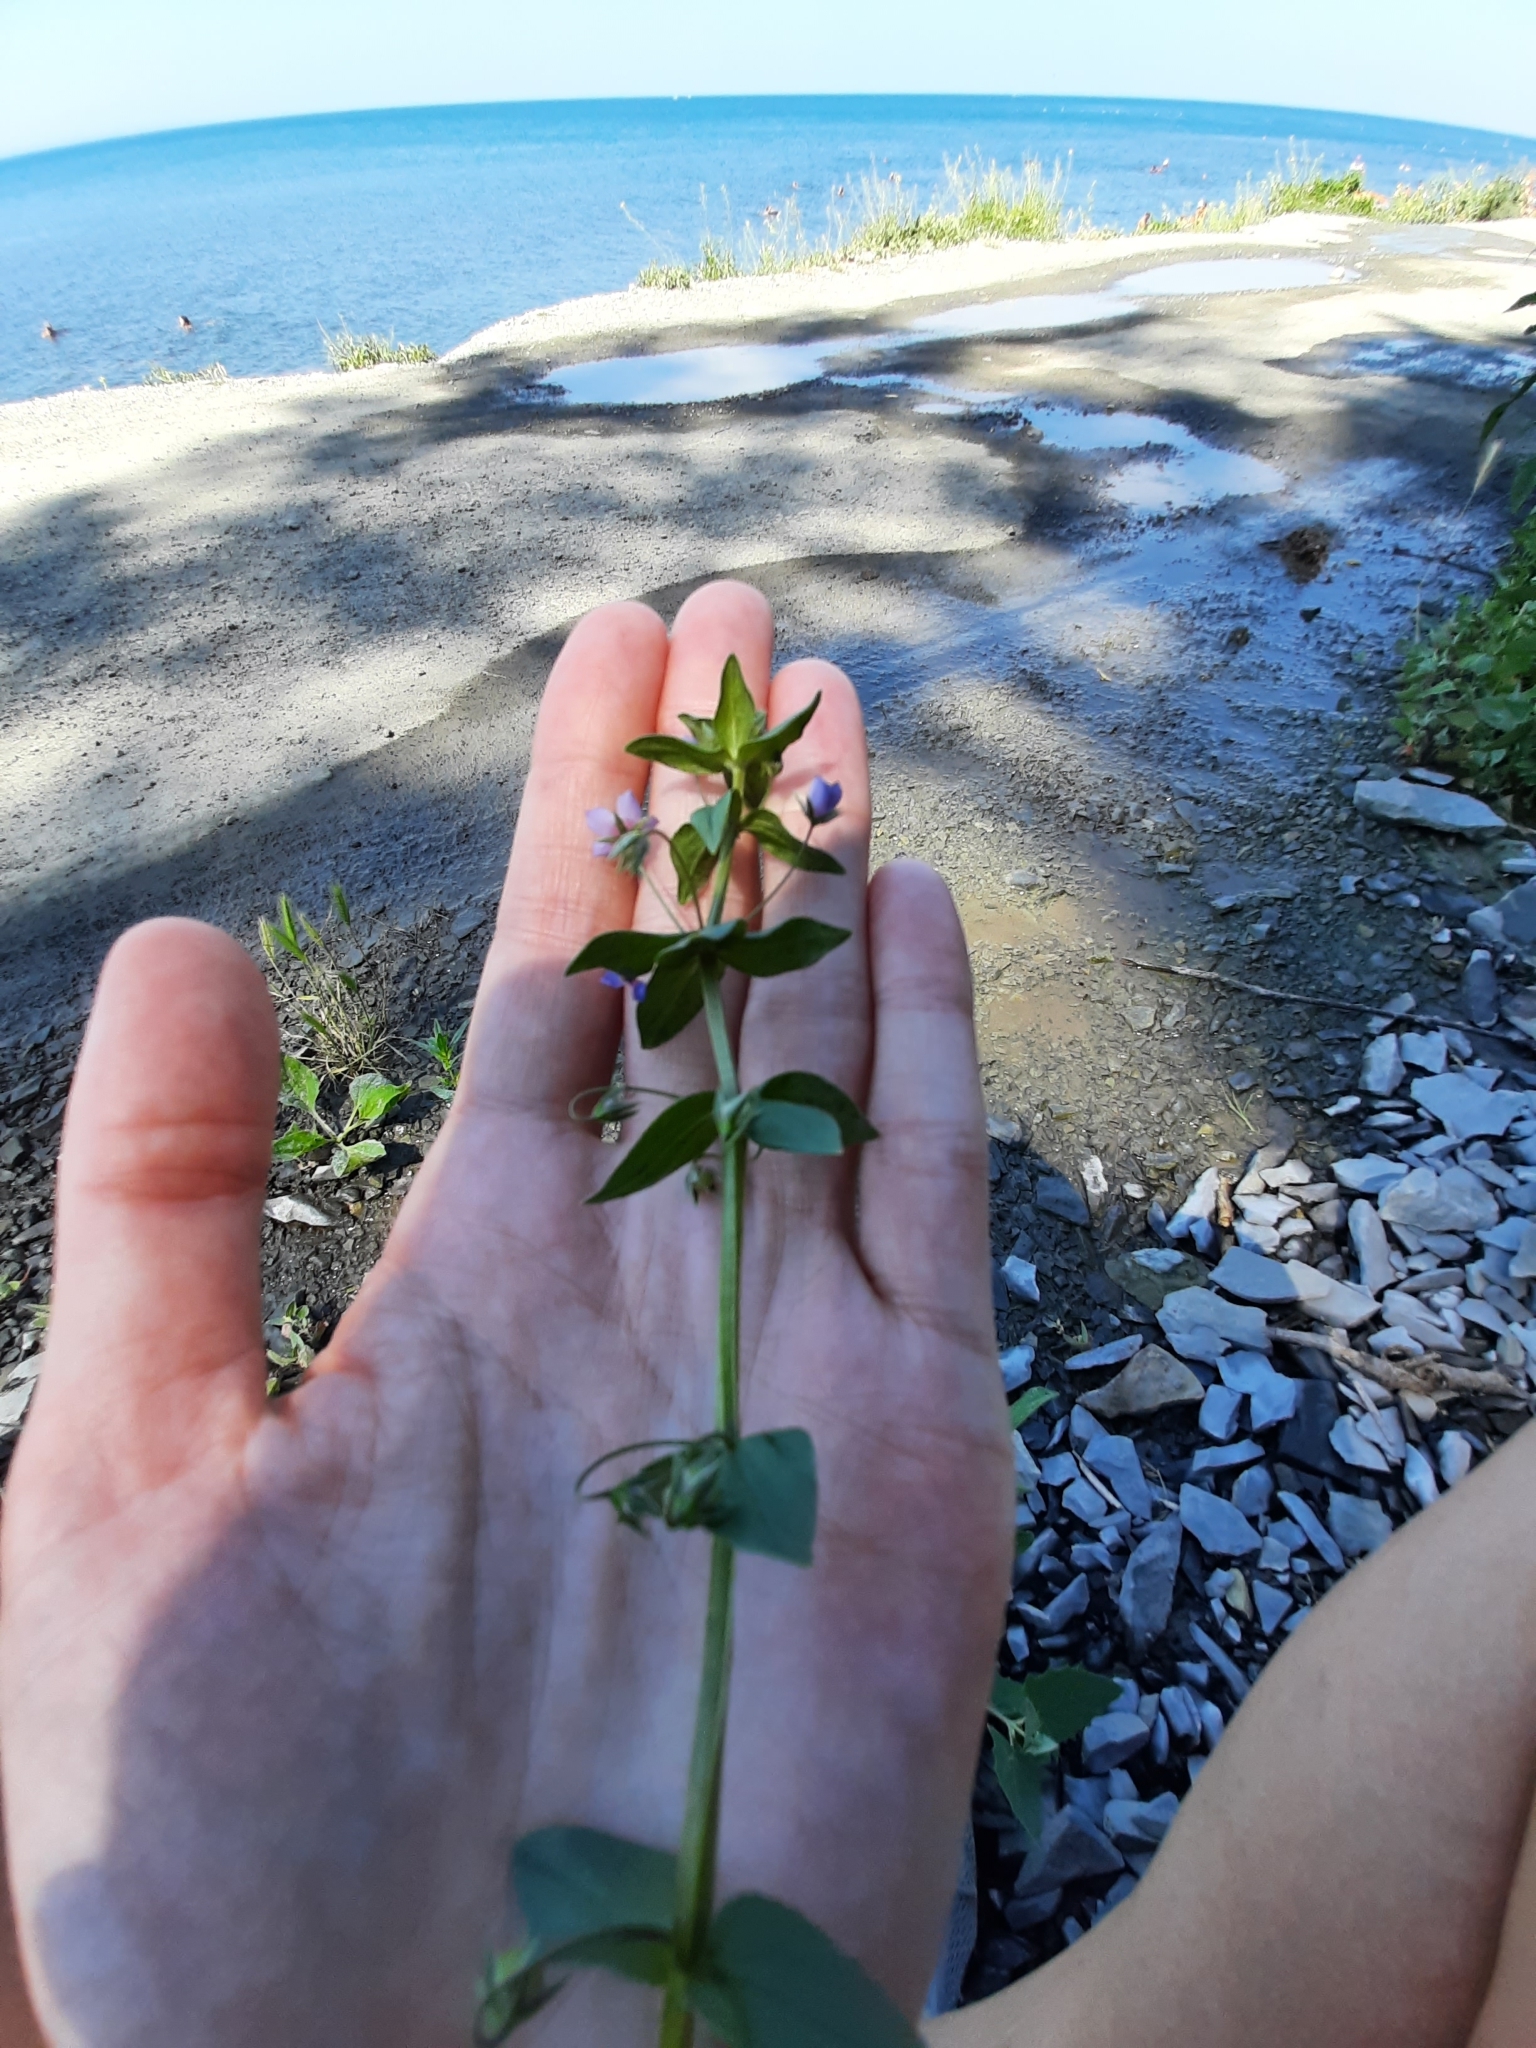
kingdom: Plantae
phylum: Tracheophyta
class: Magnoliopsida
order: Ericales
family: Primulaceae
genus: Lysimachia
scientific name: Lysimachia arvensis
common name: Scarlet pimpernel
